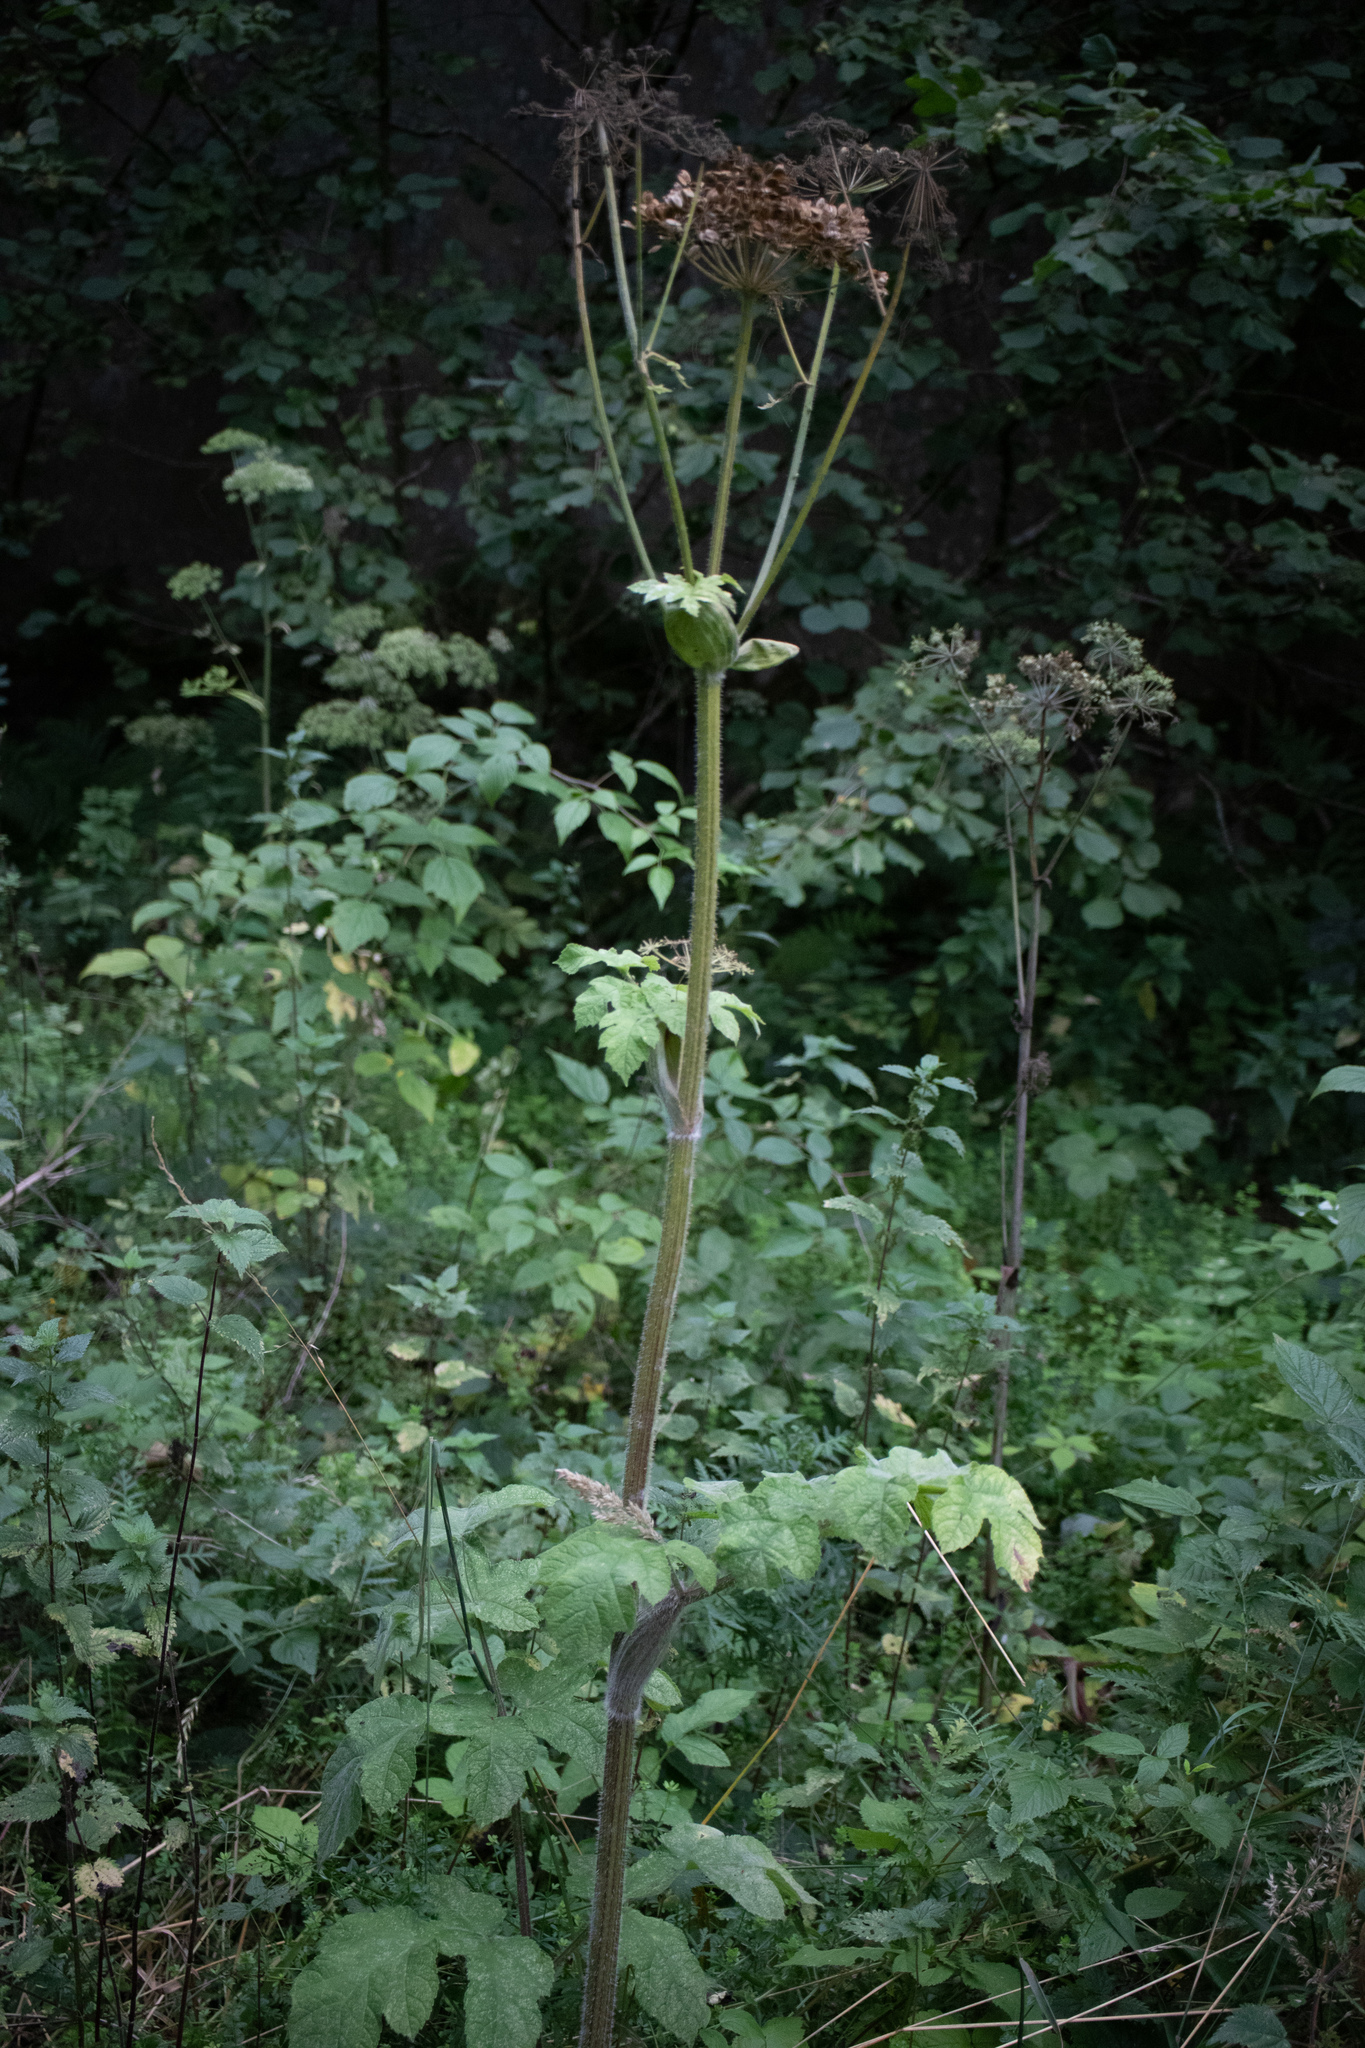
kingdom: Plantae
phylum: Tracheophyta
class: Magnoliopsida
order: Apiales
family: Apiaceae
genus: Heracleum
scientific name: Heracleum sphondylium
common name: Hogweed
